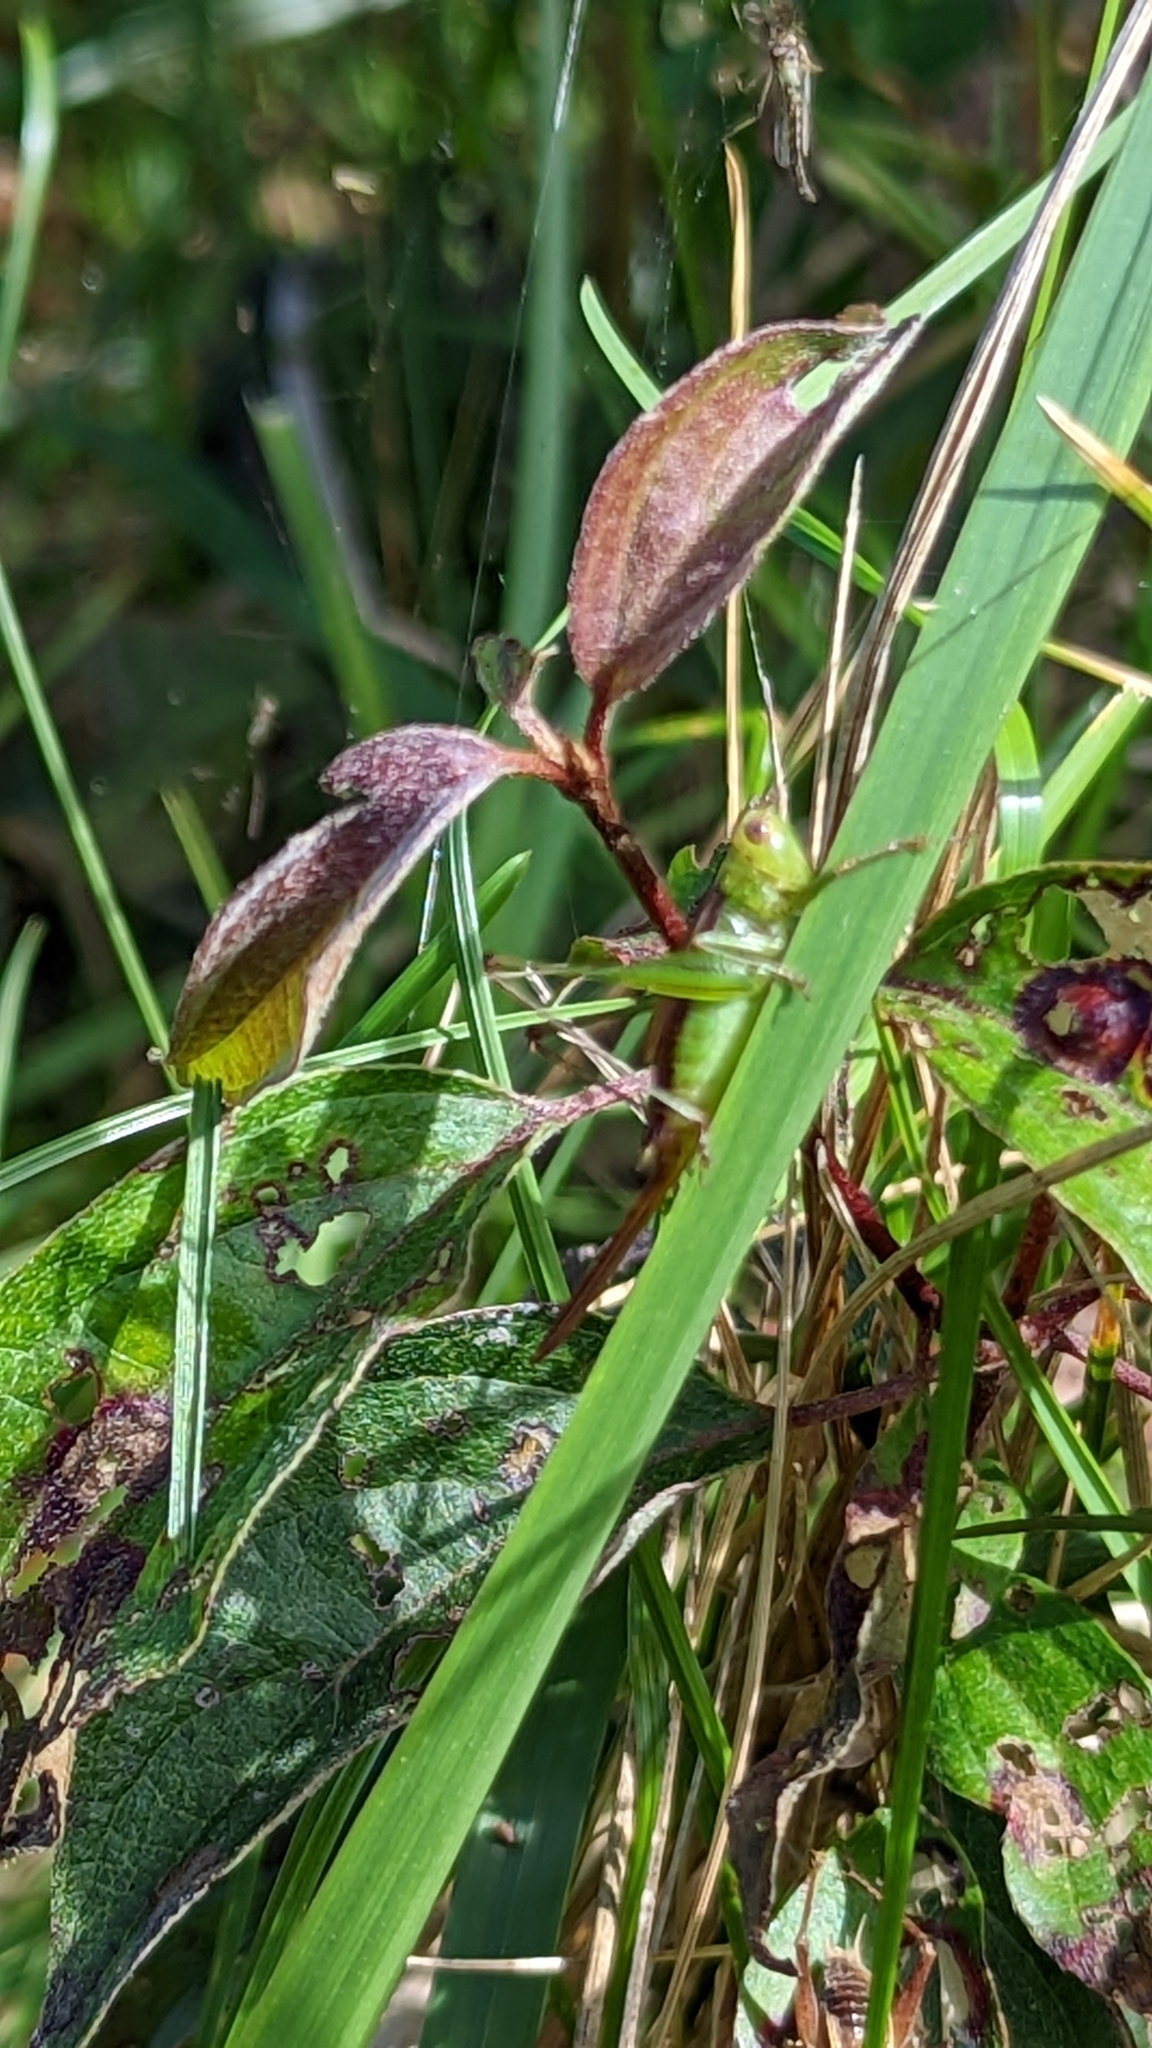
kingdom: Animalia
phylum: Arthropoda
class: Insecta
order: Orthoptera
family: Tettigoniidae
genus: Conocephalus
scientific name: Conocephalus brevipennis
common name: Short-winged meadow katydid
